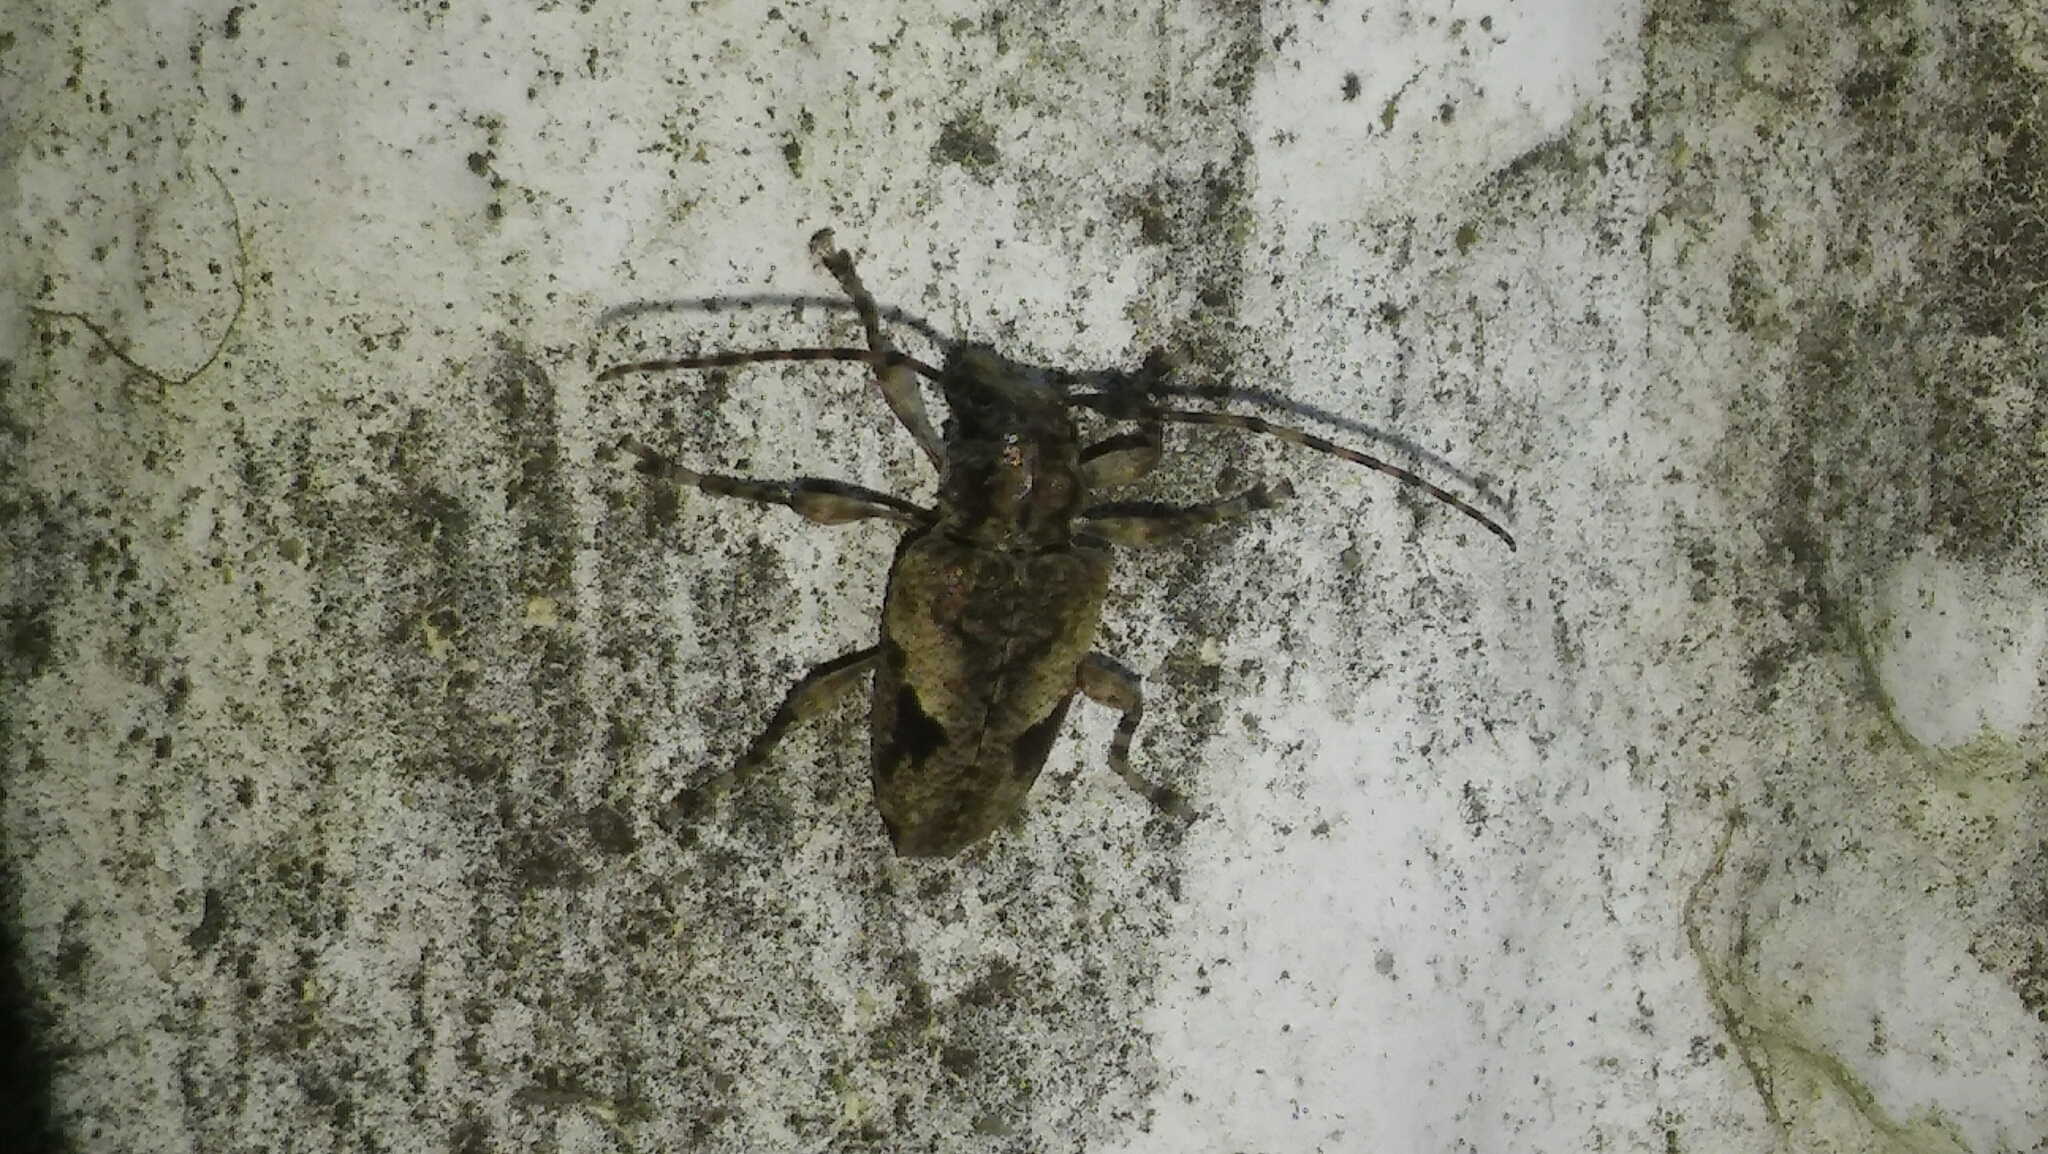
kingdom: Animalia
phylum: Arthropoda
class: Insecta
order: Coleoptera
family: Cerambycidae
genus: Psapharochrus
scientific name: Psapharochrus jaspideus
